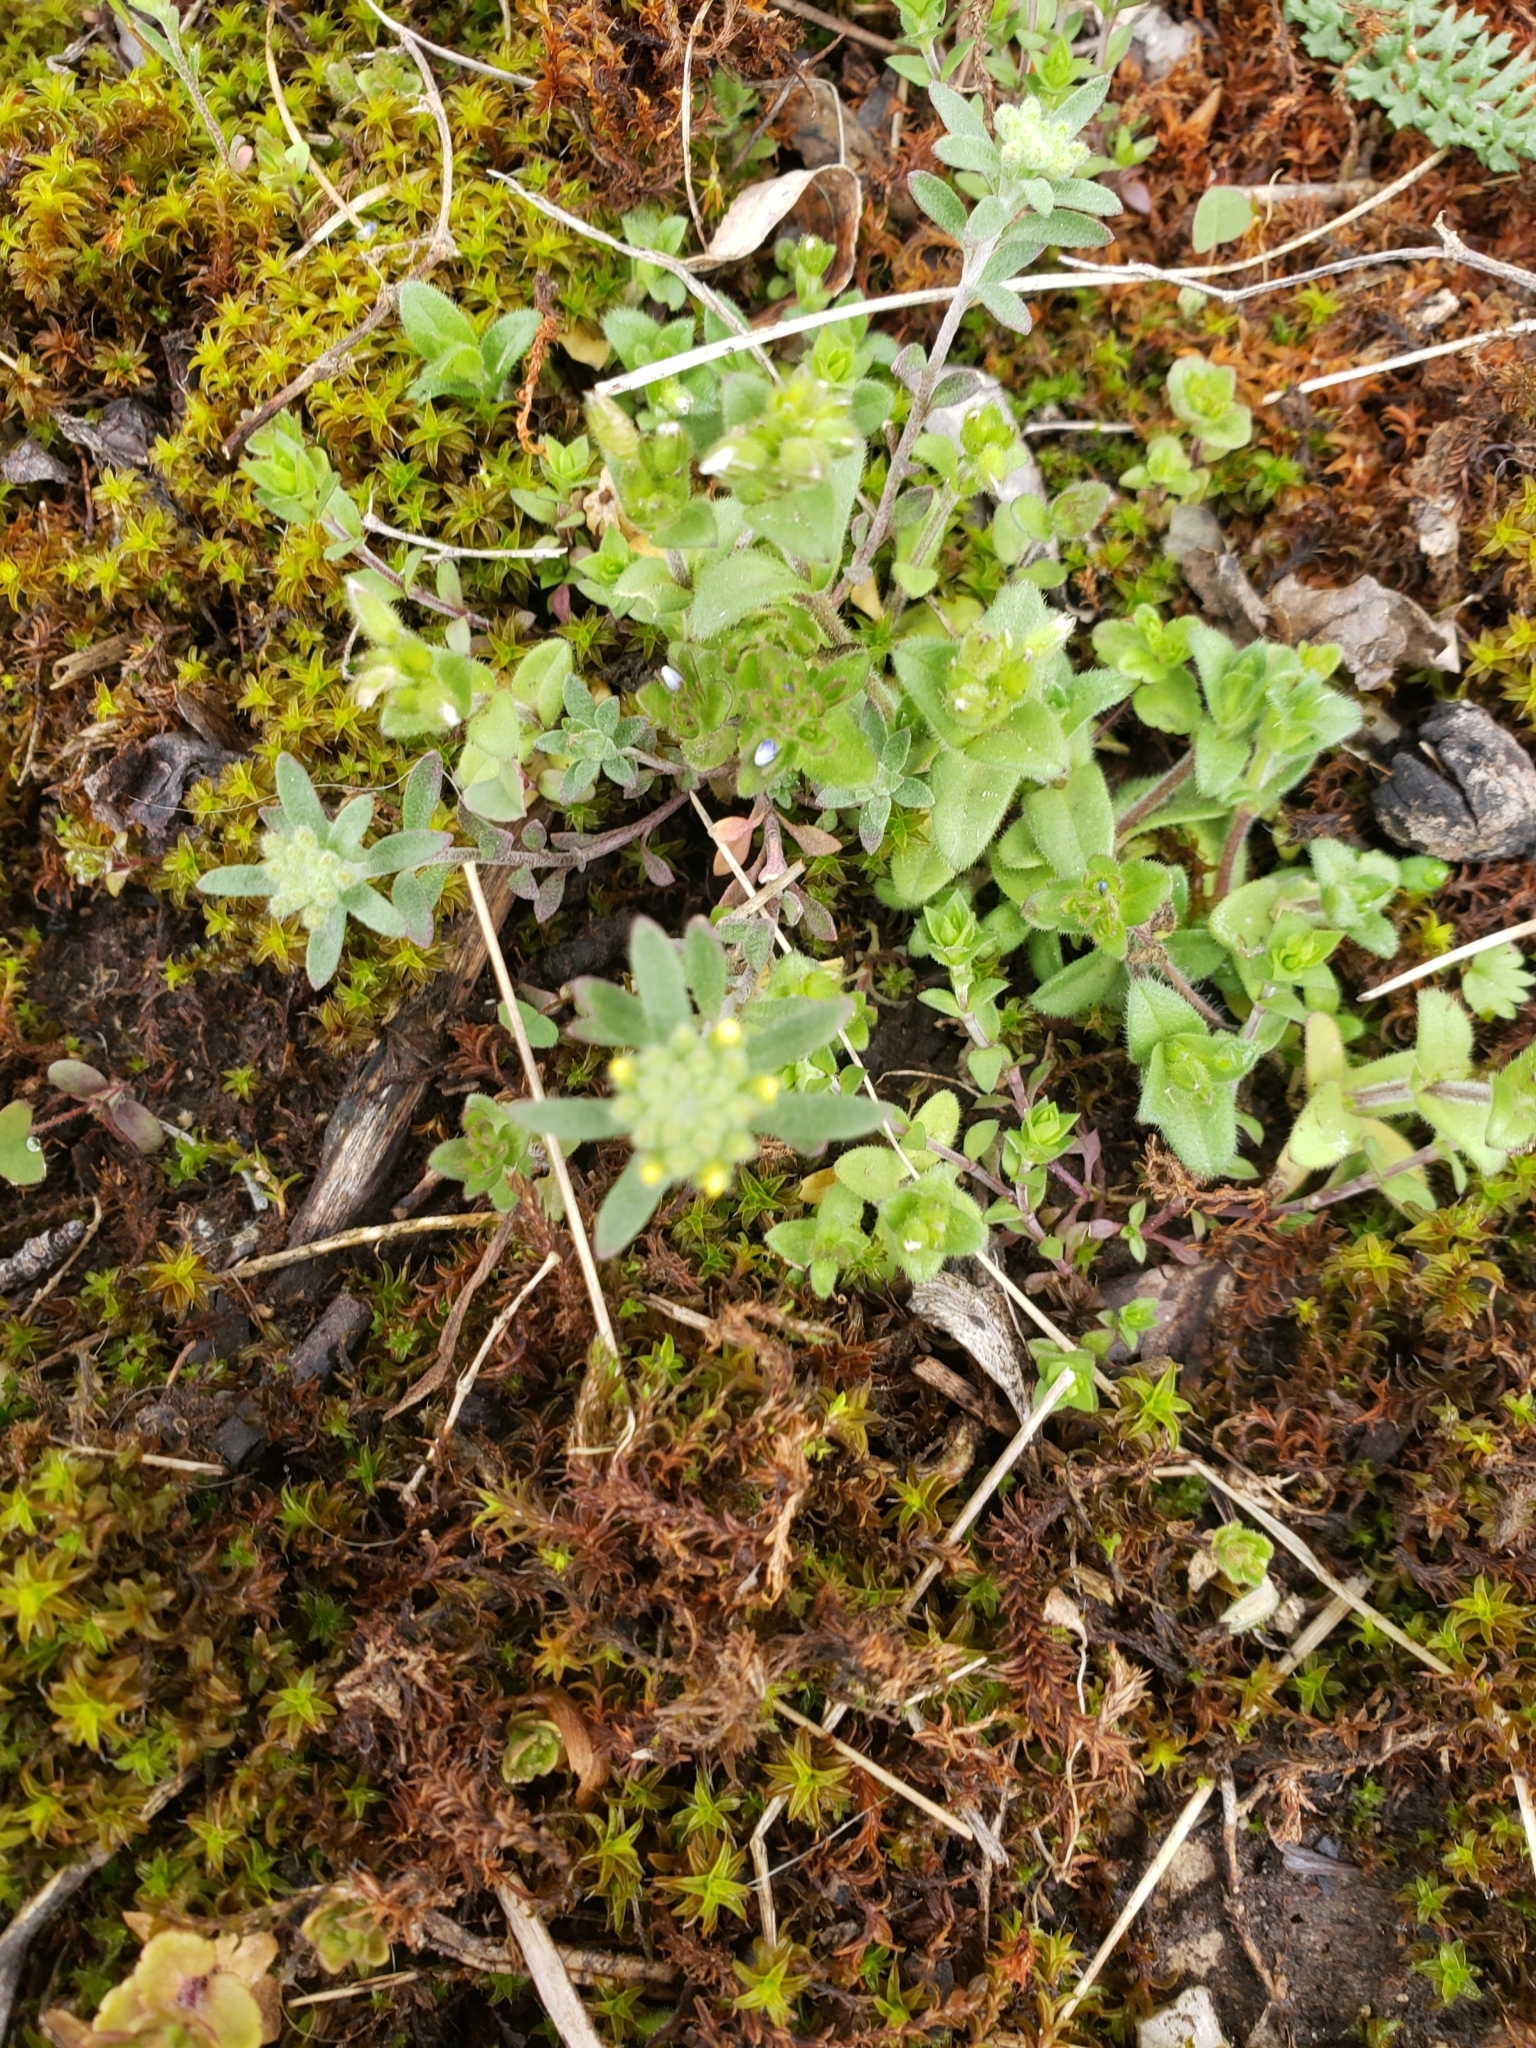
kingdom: Plantae
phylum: Tracheophyta
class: Magnoliopsida
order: Brassicales
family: Brassicaceae
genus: Alyssum
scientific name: Alyssum alyssoides
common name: Small alison
